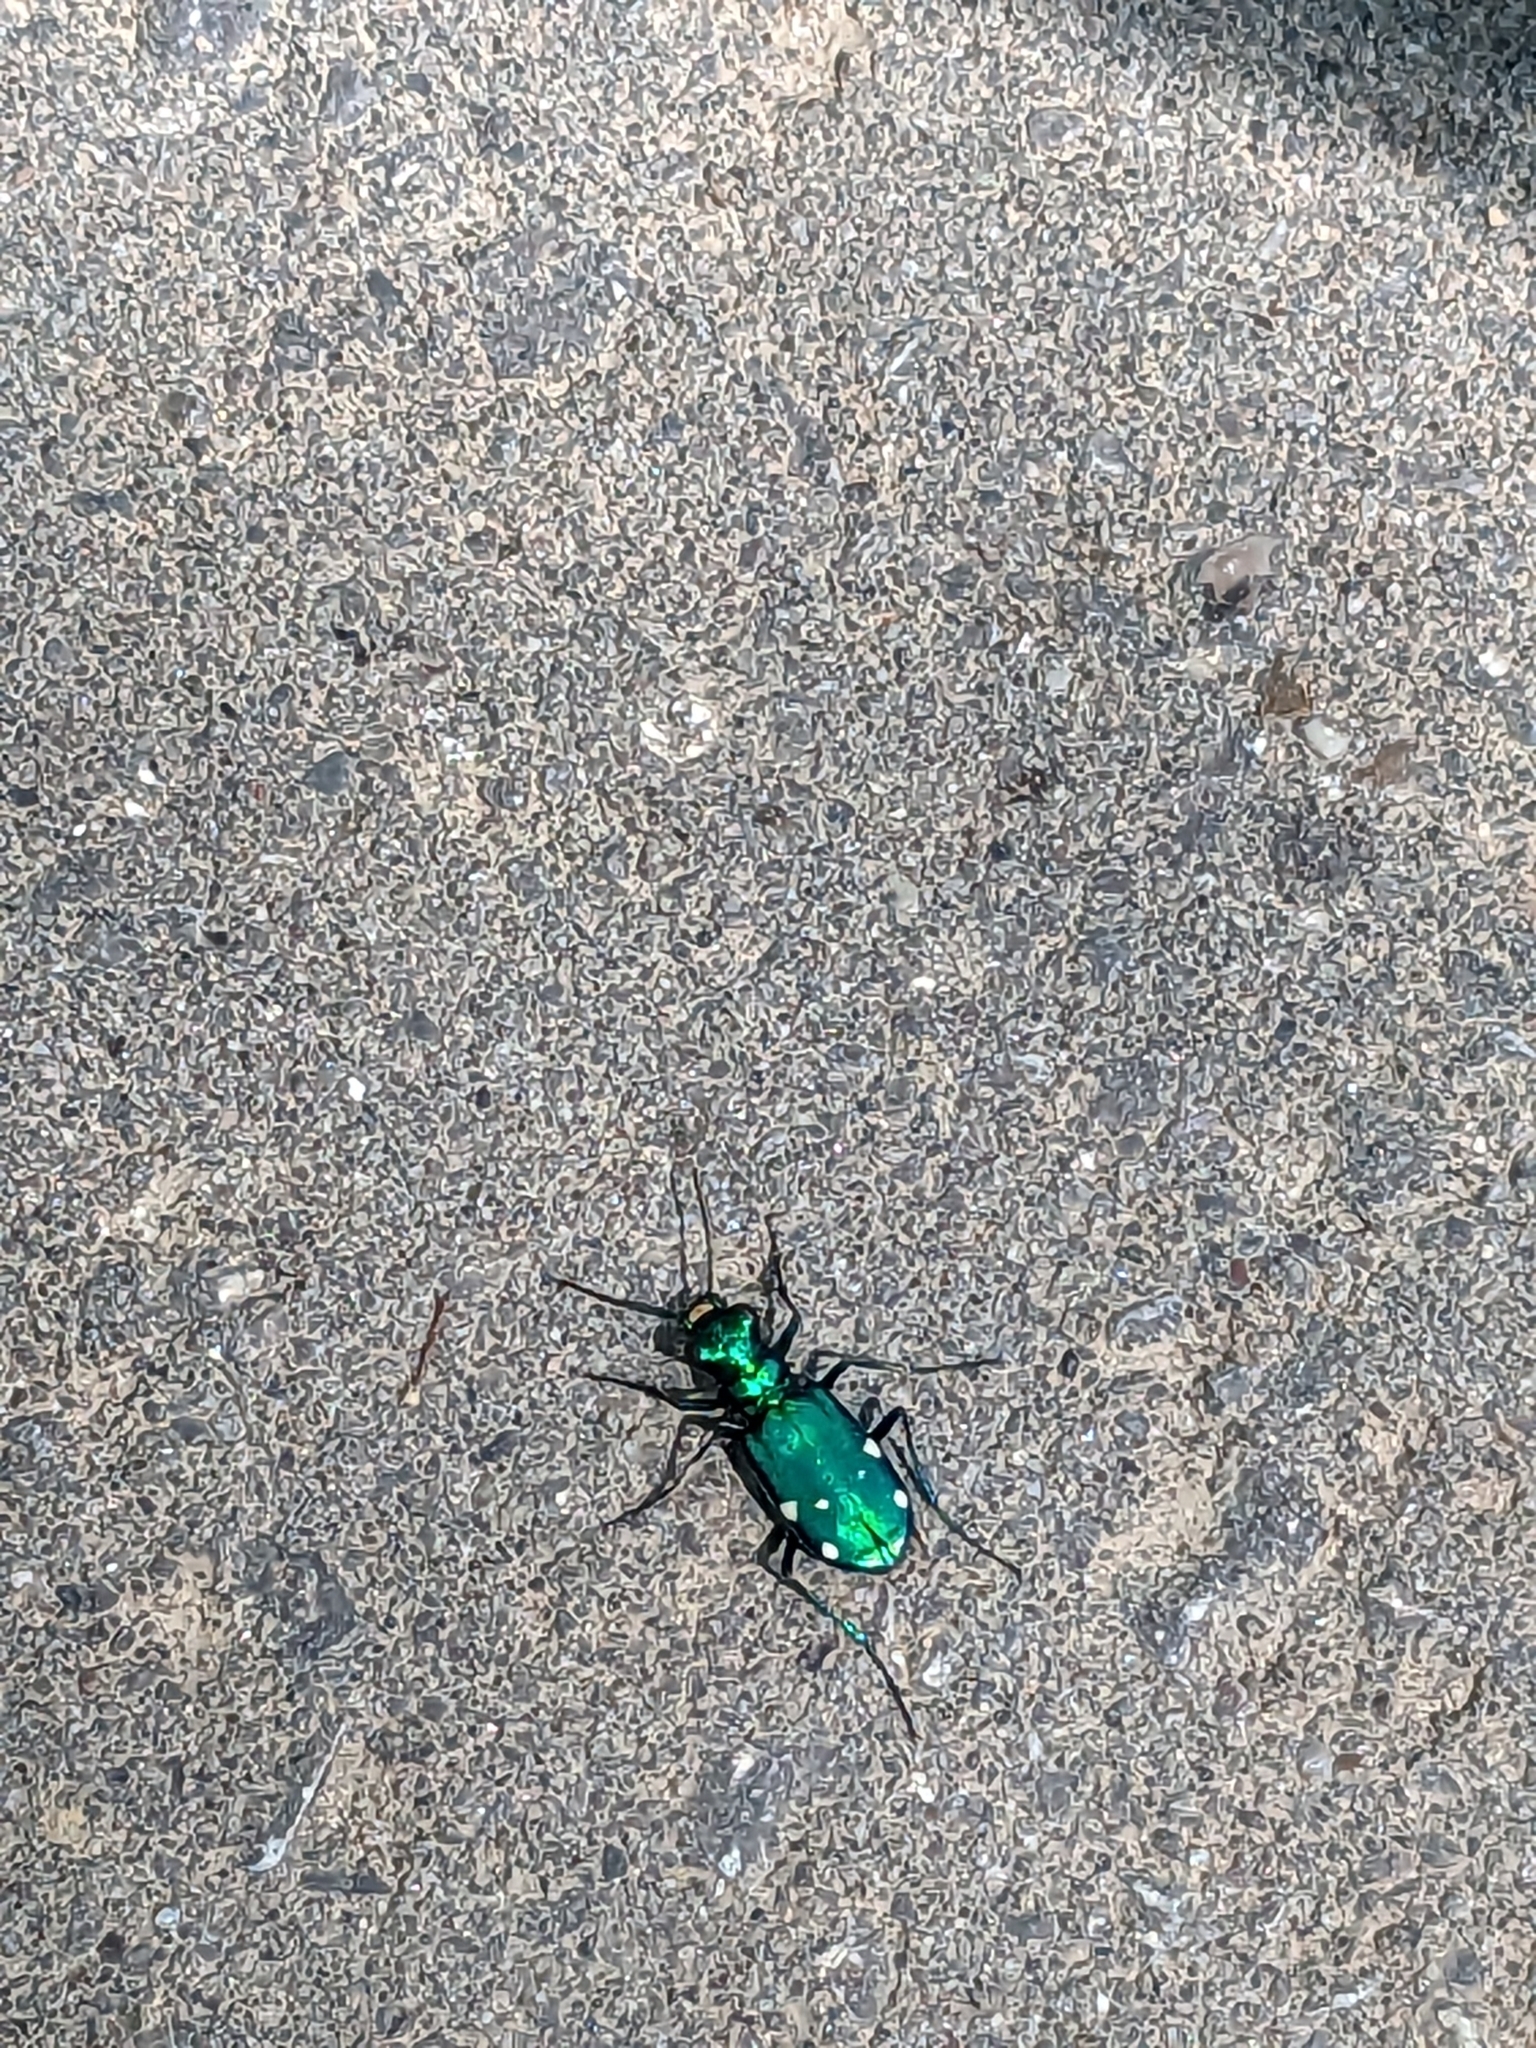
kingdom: Animalia
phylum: Arthropoda
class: Insecta
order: Coleoptera
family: Carabidae
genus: Cicindela
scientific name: Cicindela sexguttata
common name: Six-spotted tiger beetle
